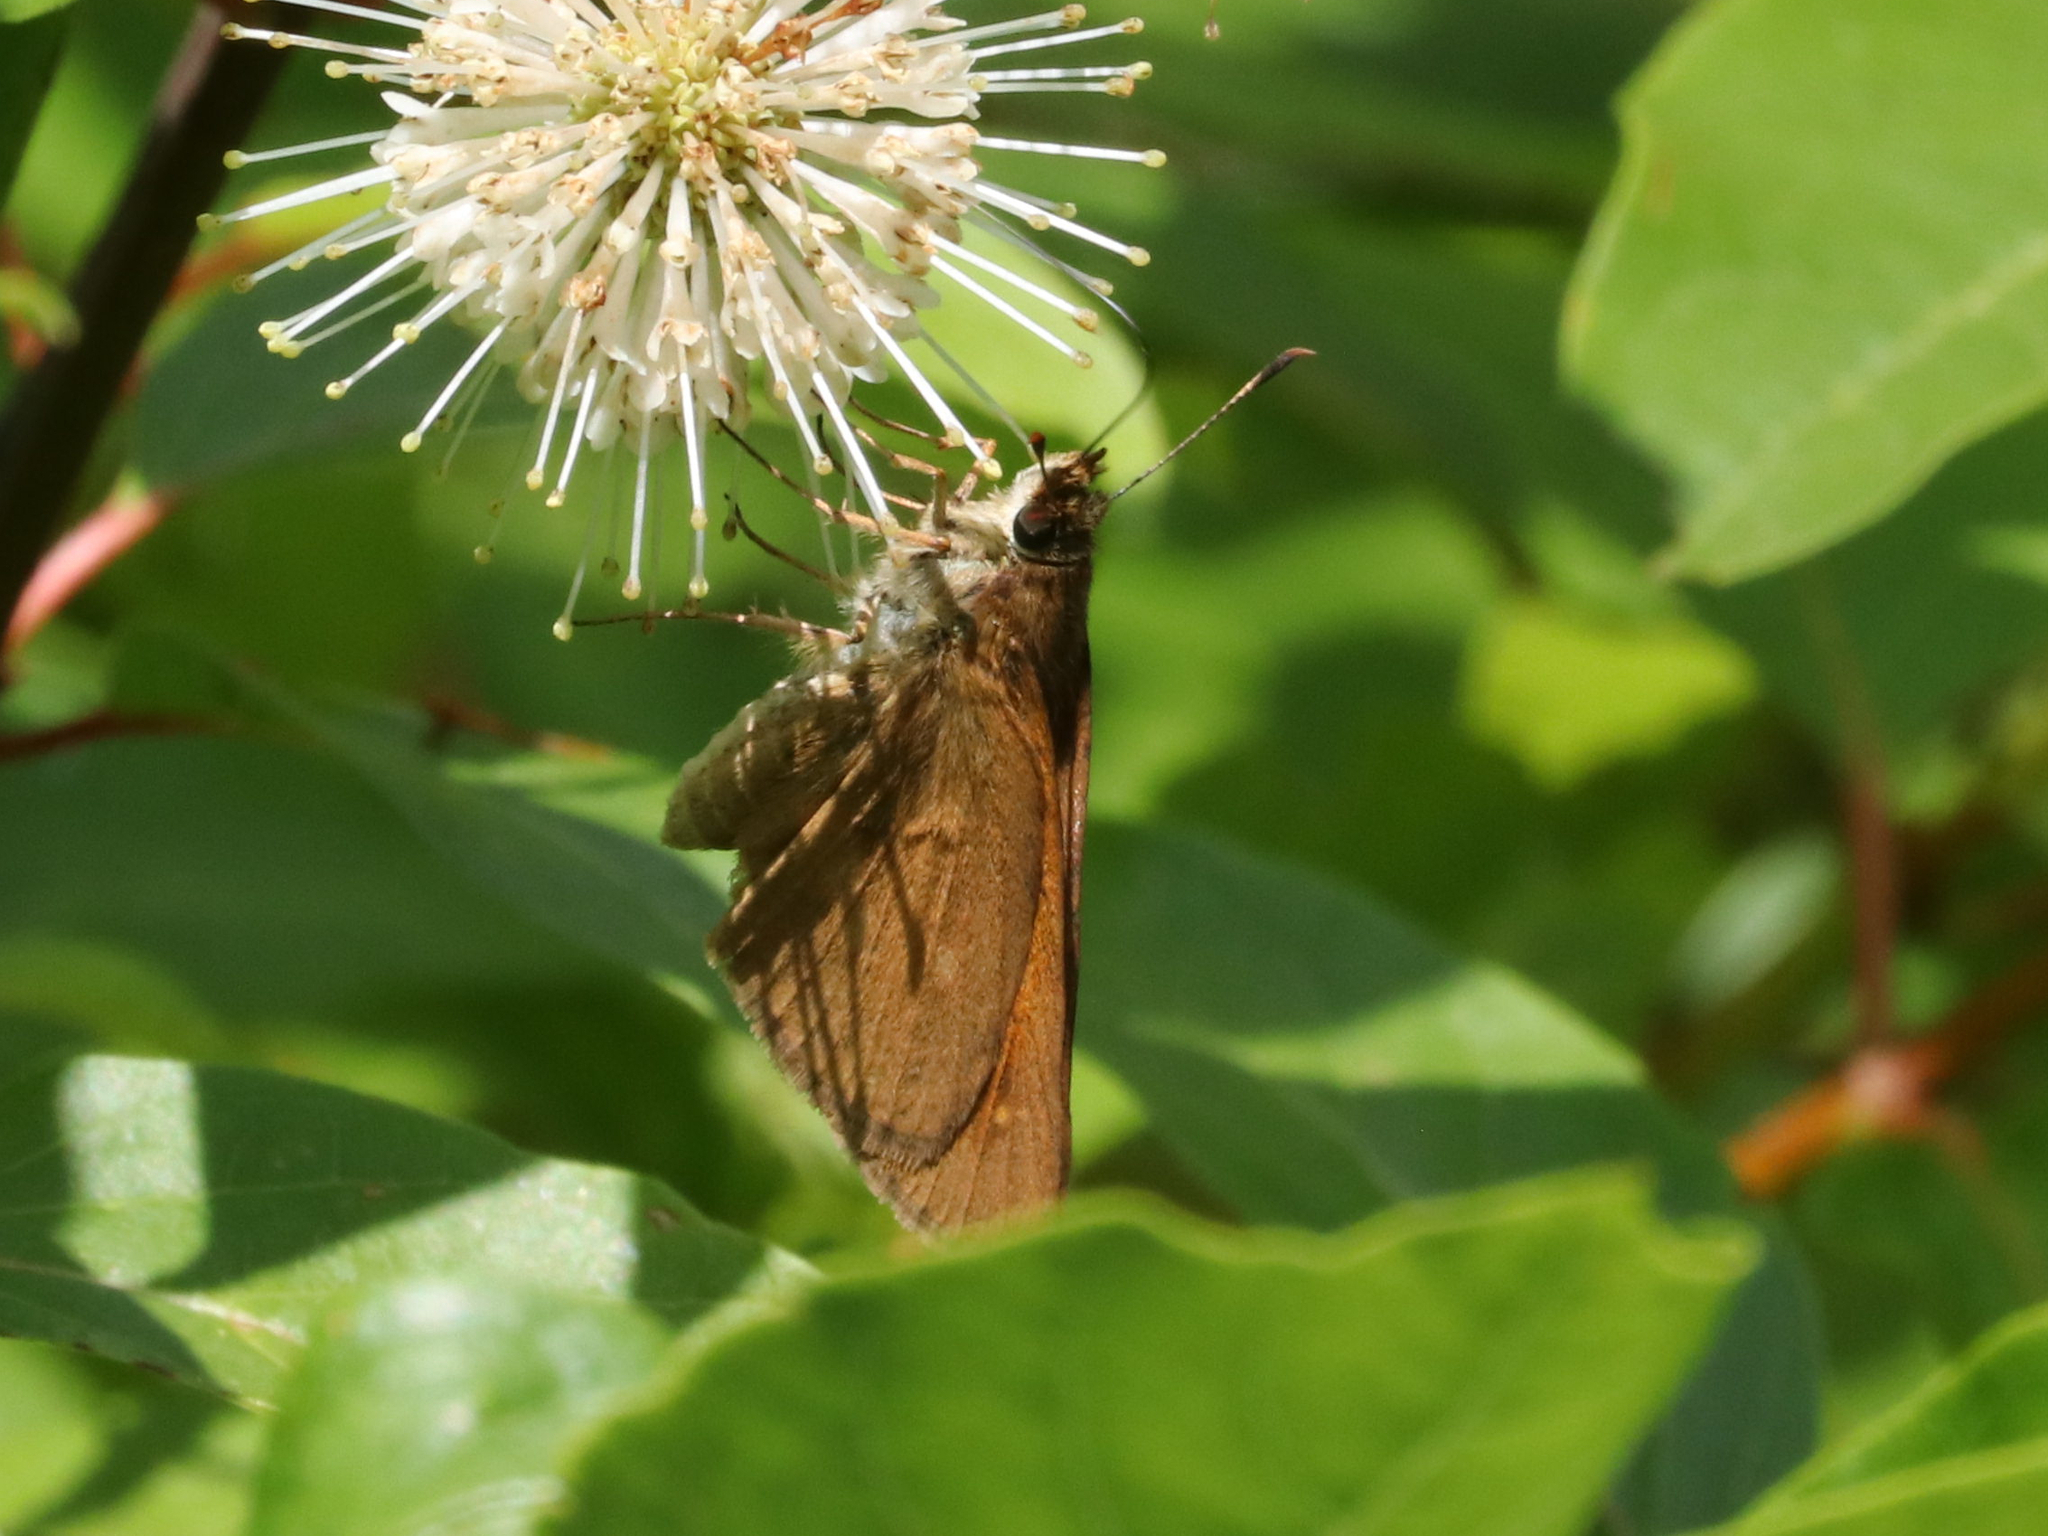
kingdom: Animalia
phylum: Arthropoda
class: Insecta
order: Lepidoptera
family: Hesperiidae
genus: Poanes
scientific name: Poanes viator
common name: Broad-winged skipper
